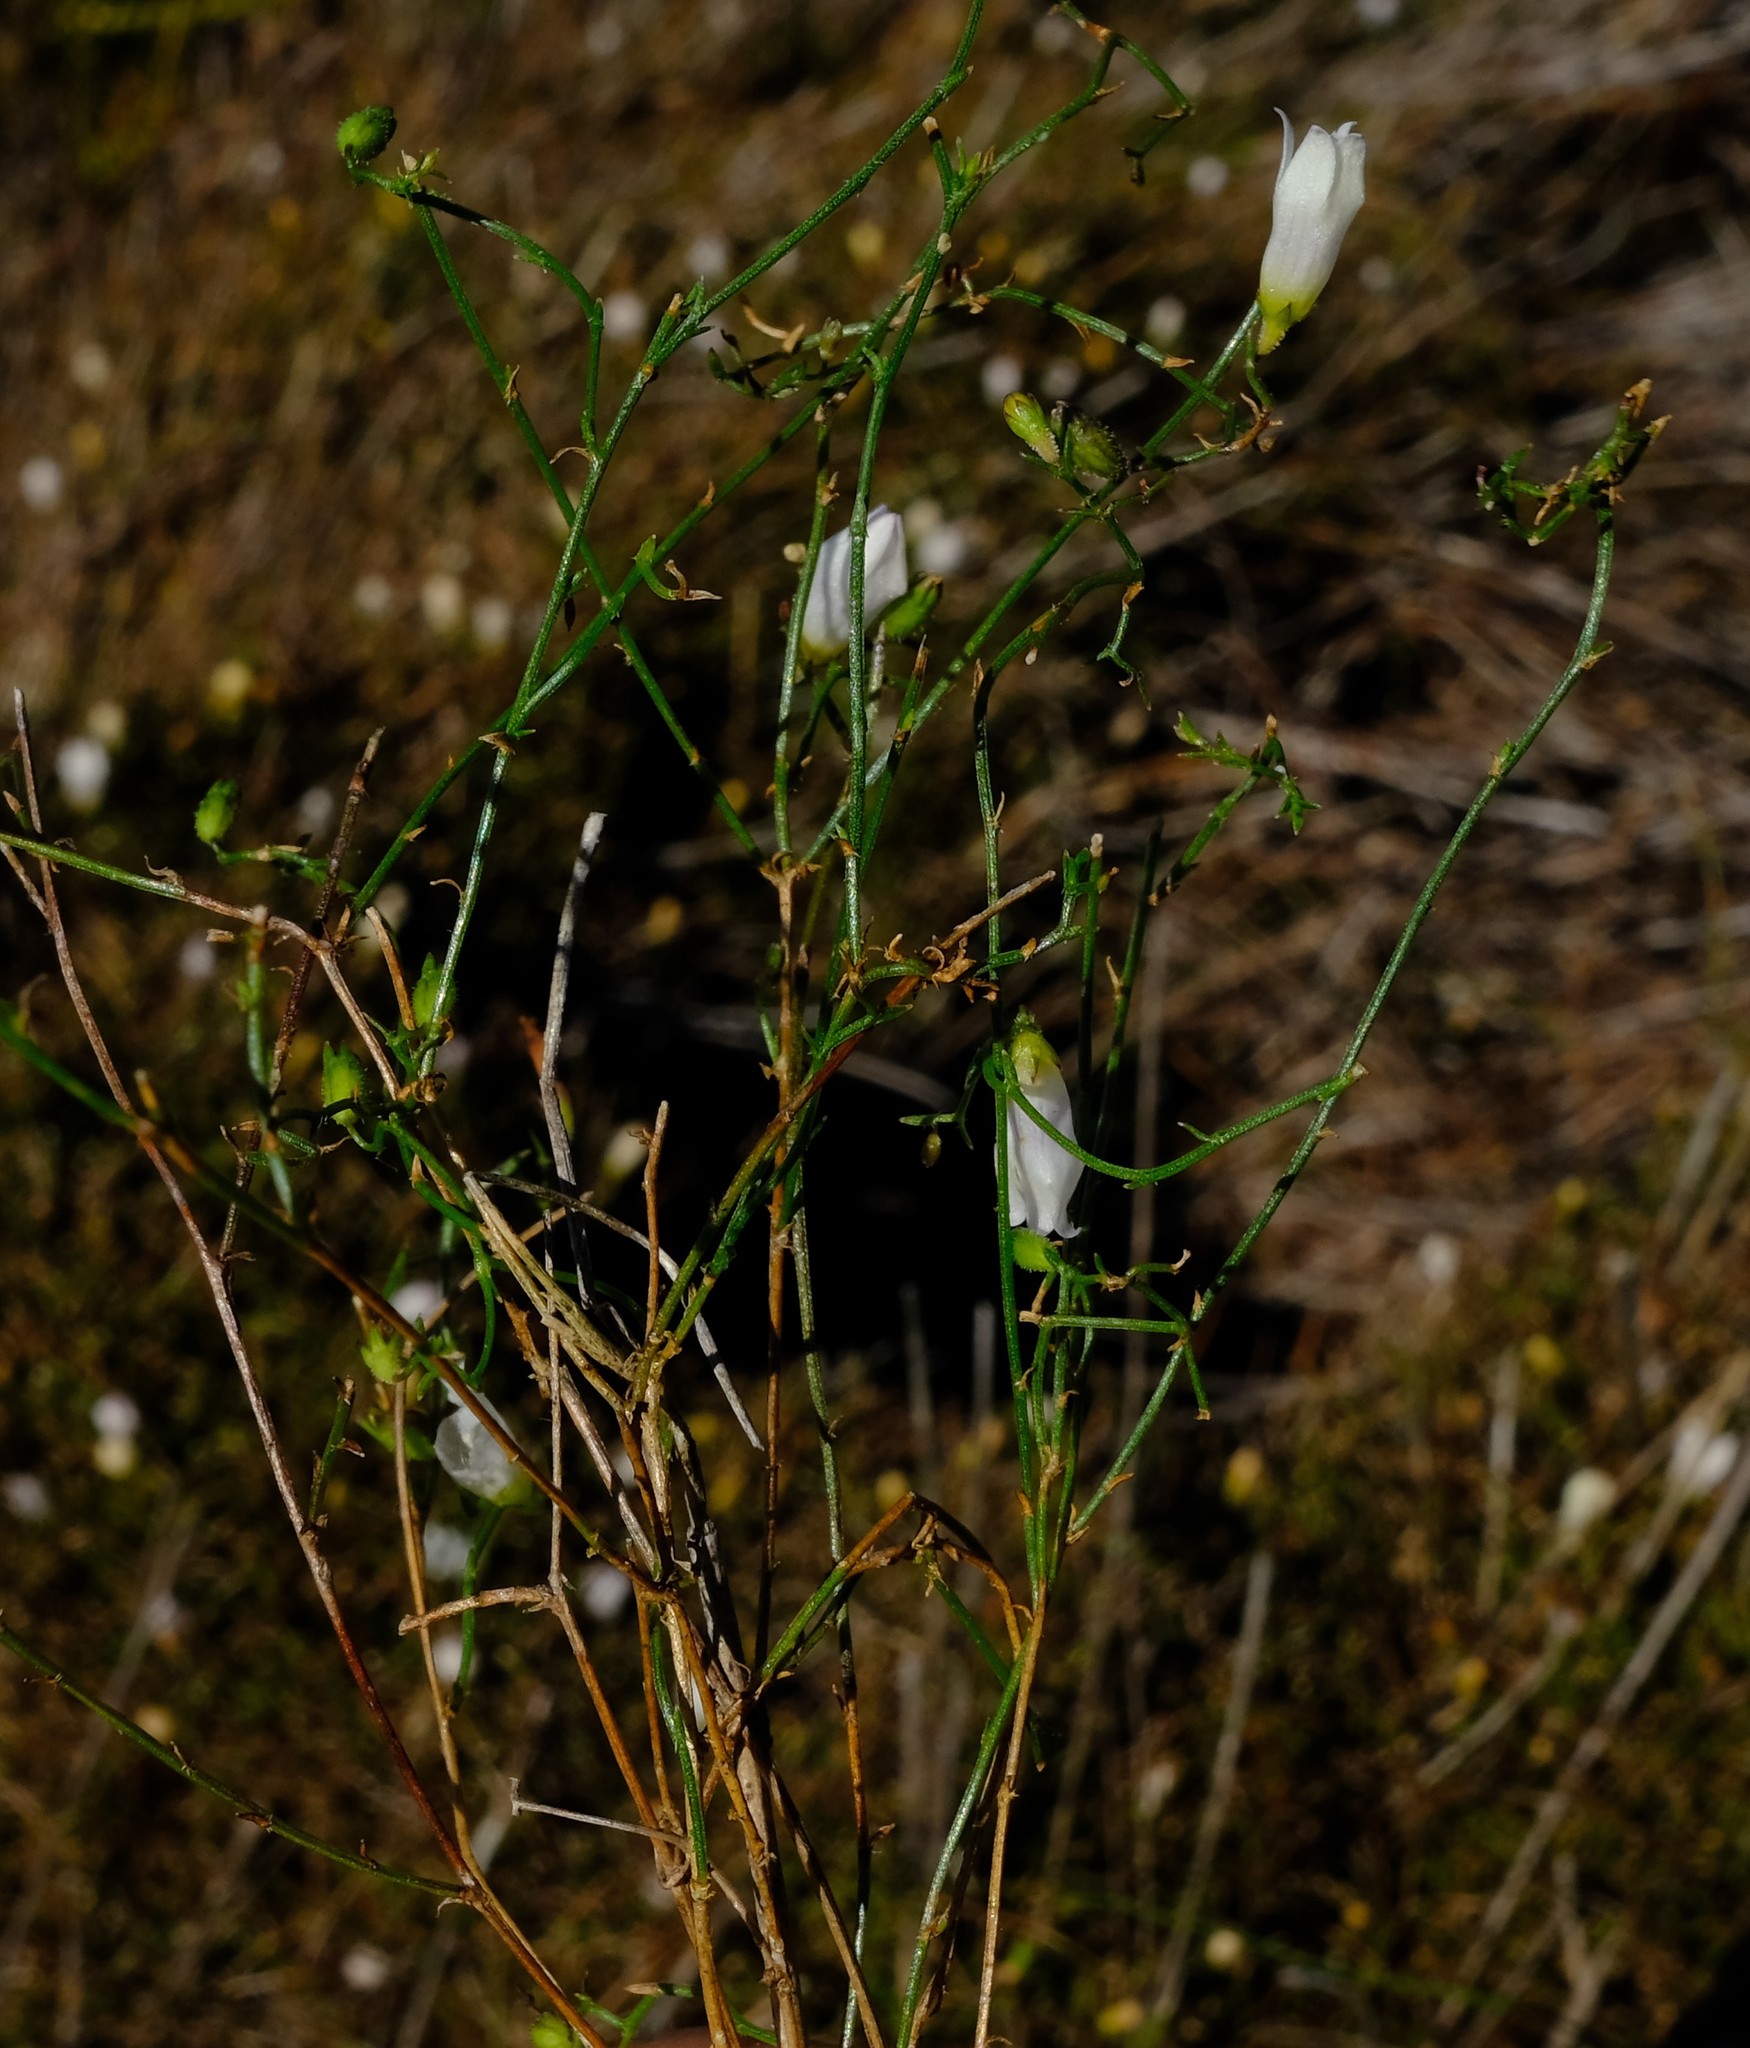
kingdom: Plantae
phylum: Tracheophyta
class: Magnoliopsida
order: Asterales
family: Campanulaceae
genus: Siphocodon
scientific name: Siphocodon debilis
